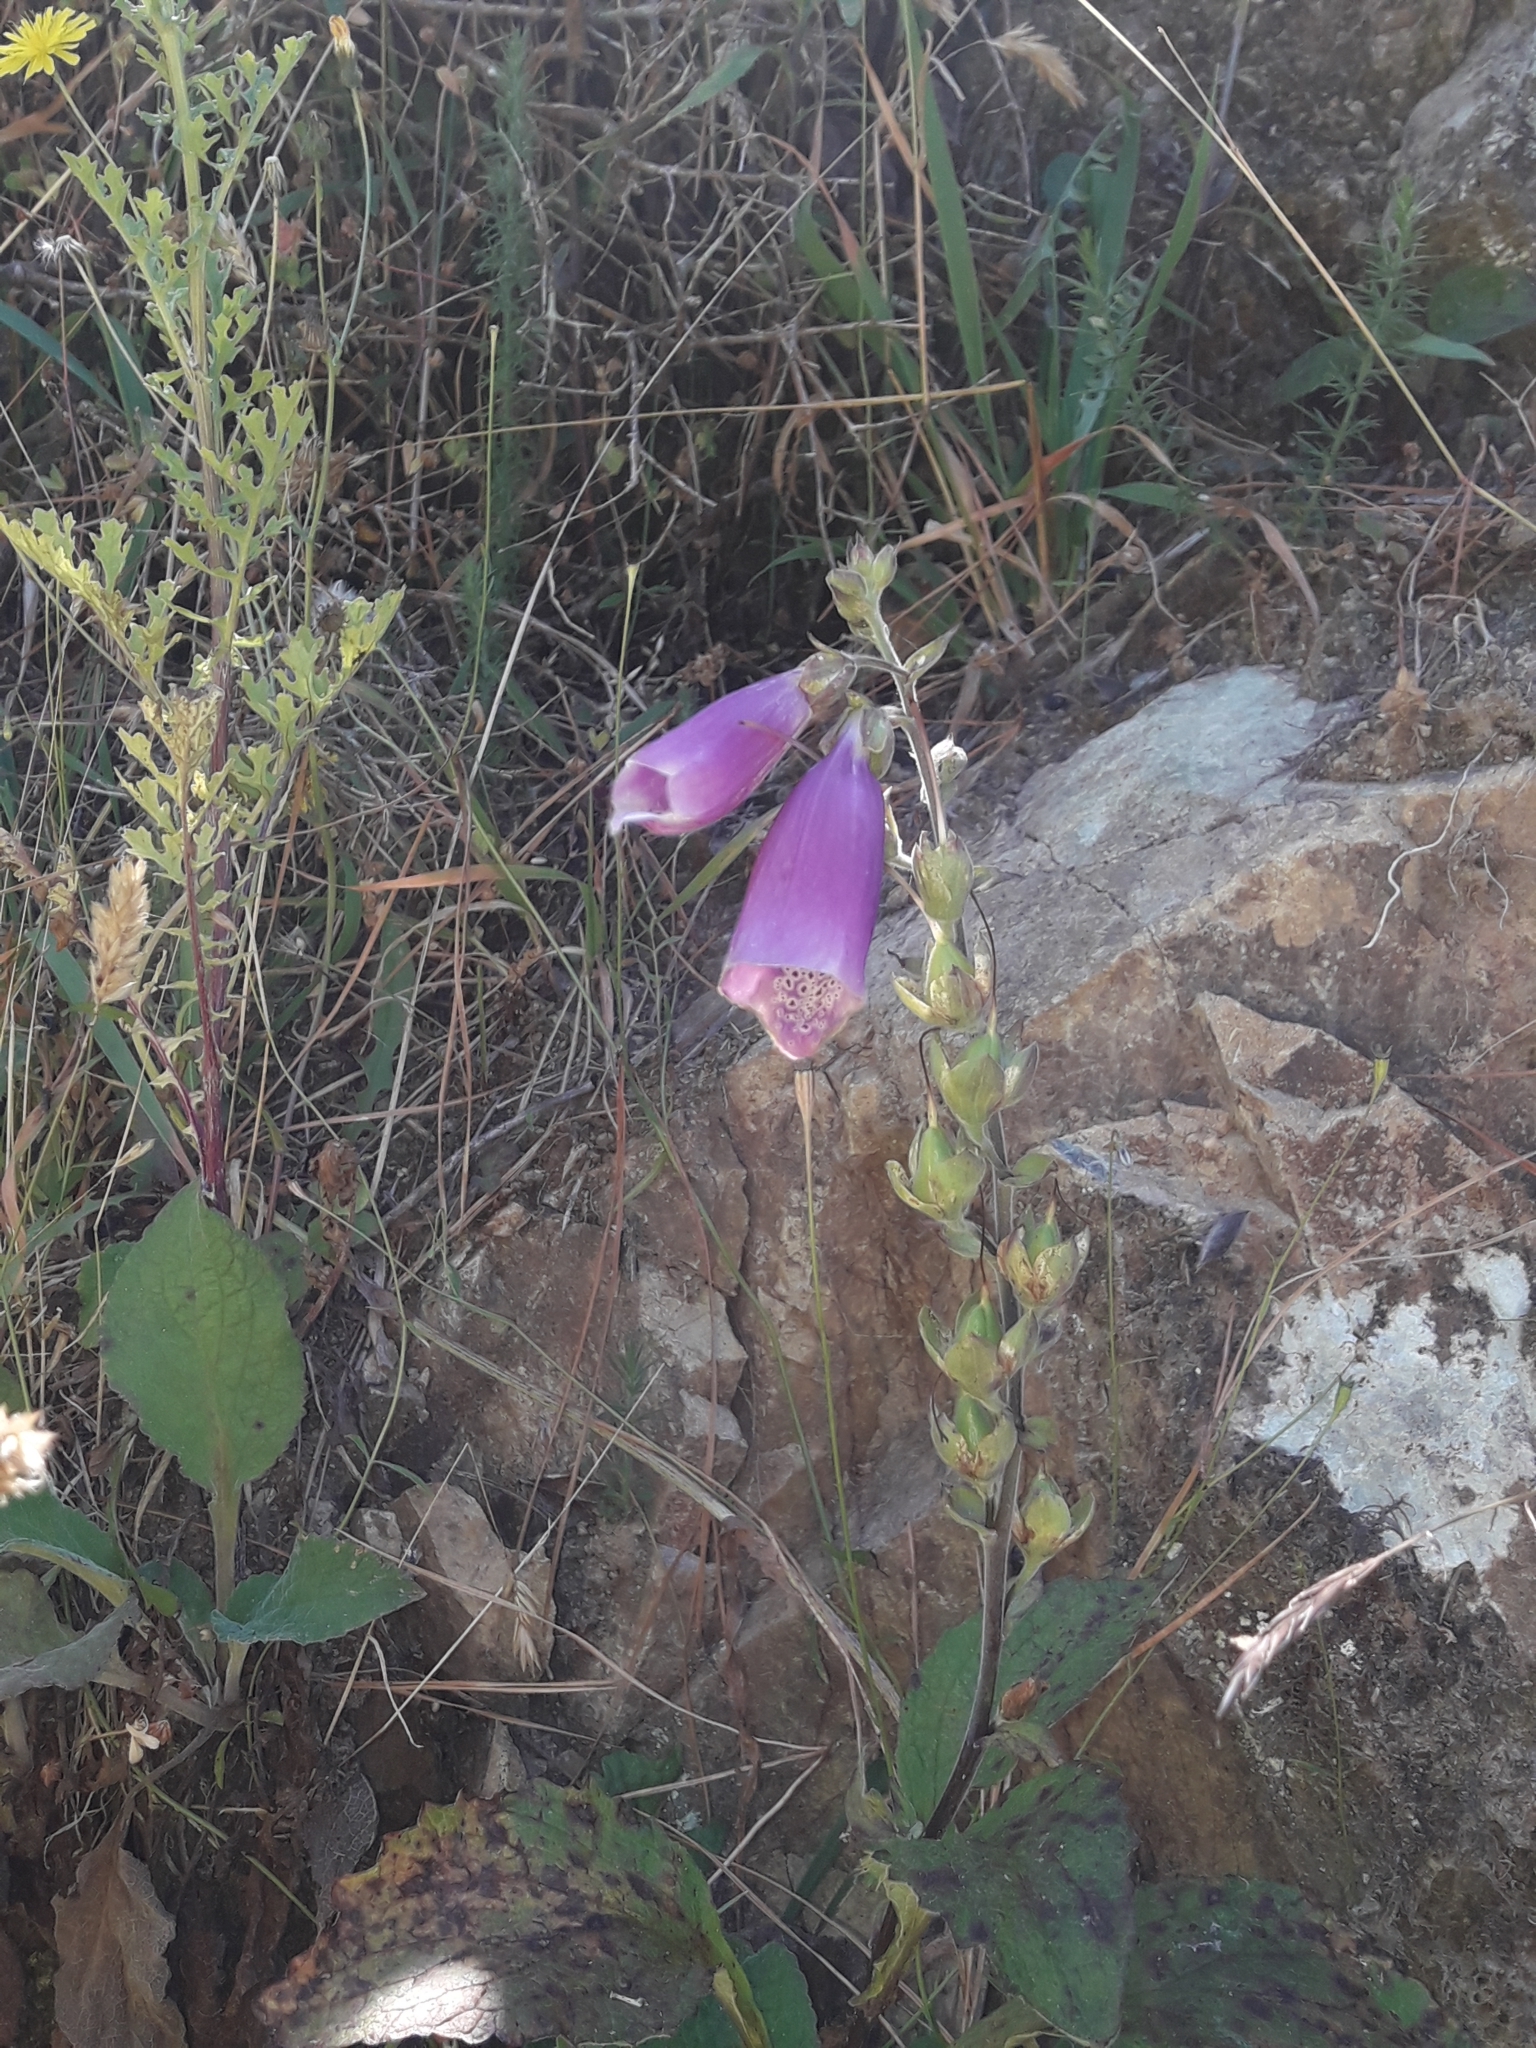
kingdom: Plantae
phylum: Tracheophyta
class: Magnoliopsida
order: Lamiales
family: Plantaginaceae
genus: Digitalis
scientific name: Digitalis purpurea
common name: Foxglove
